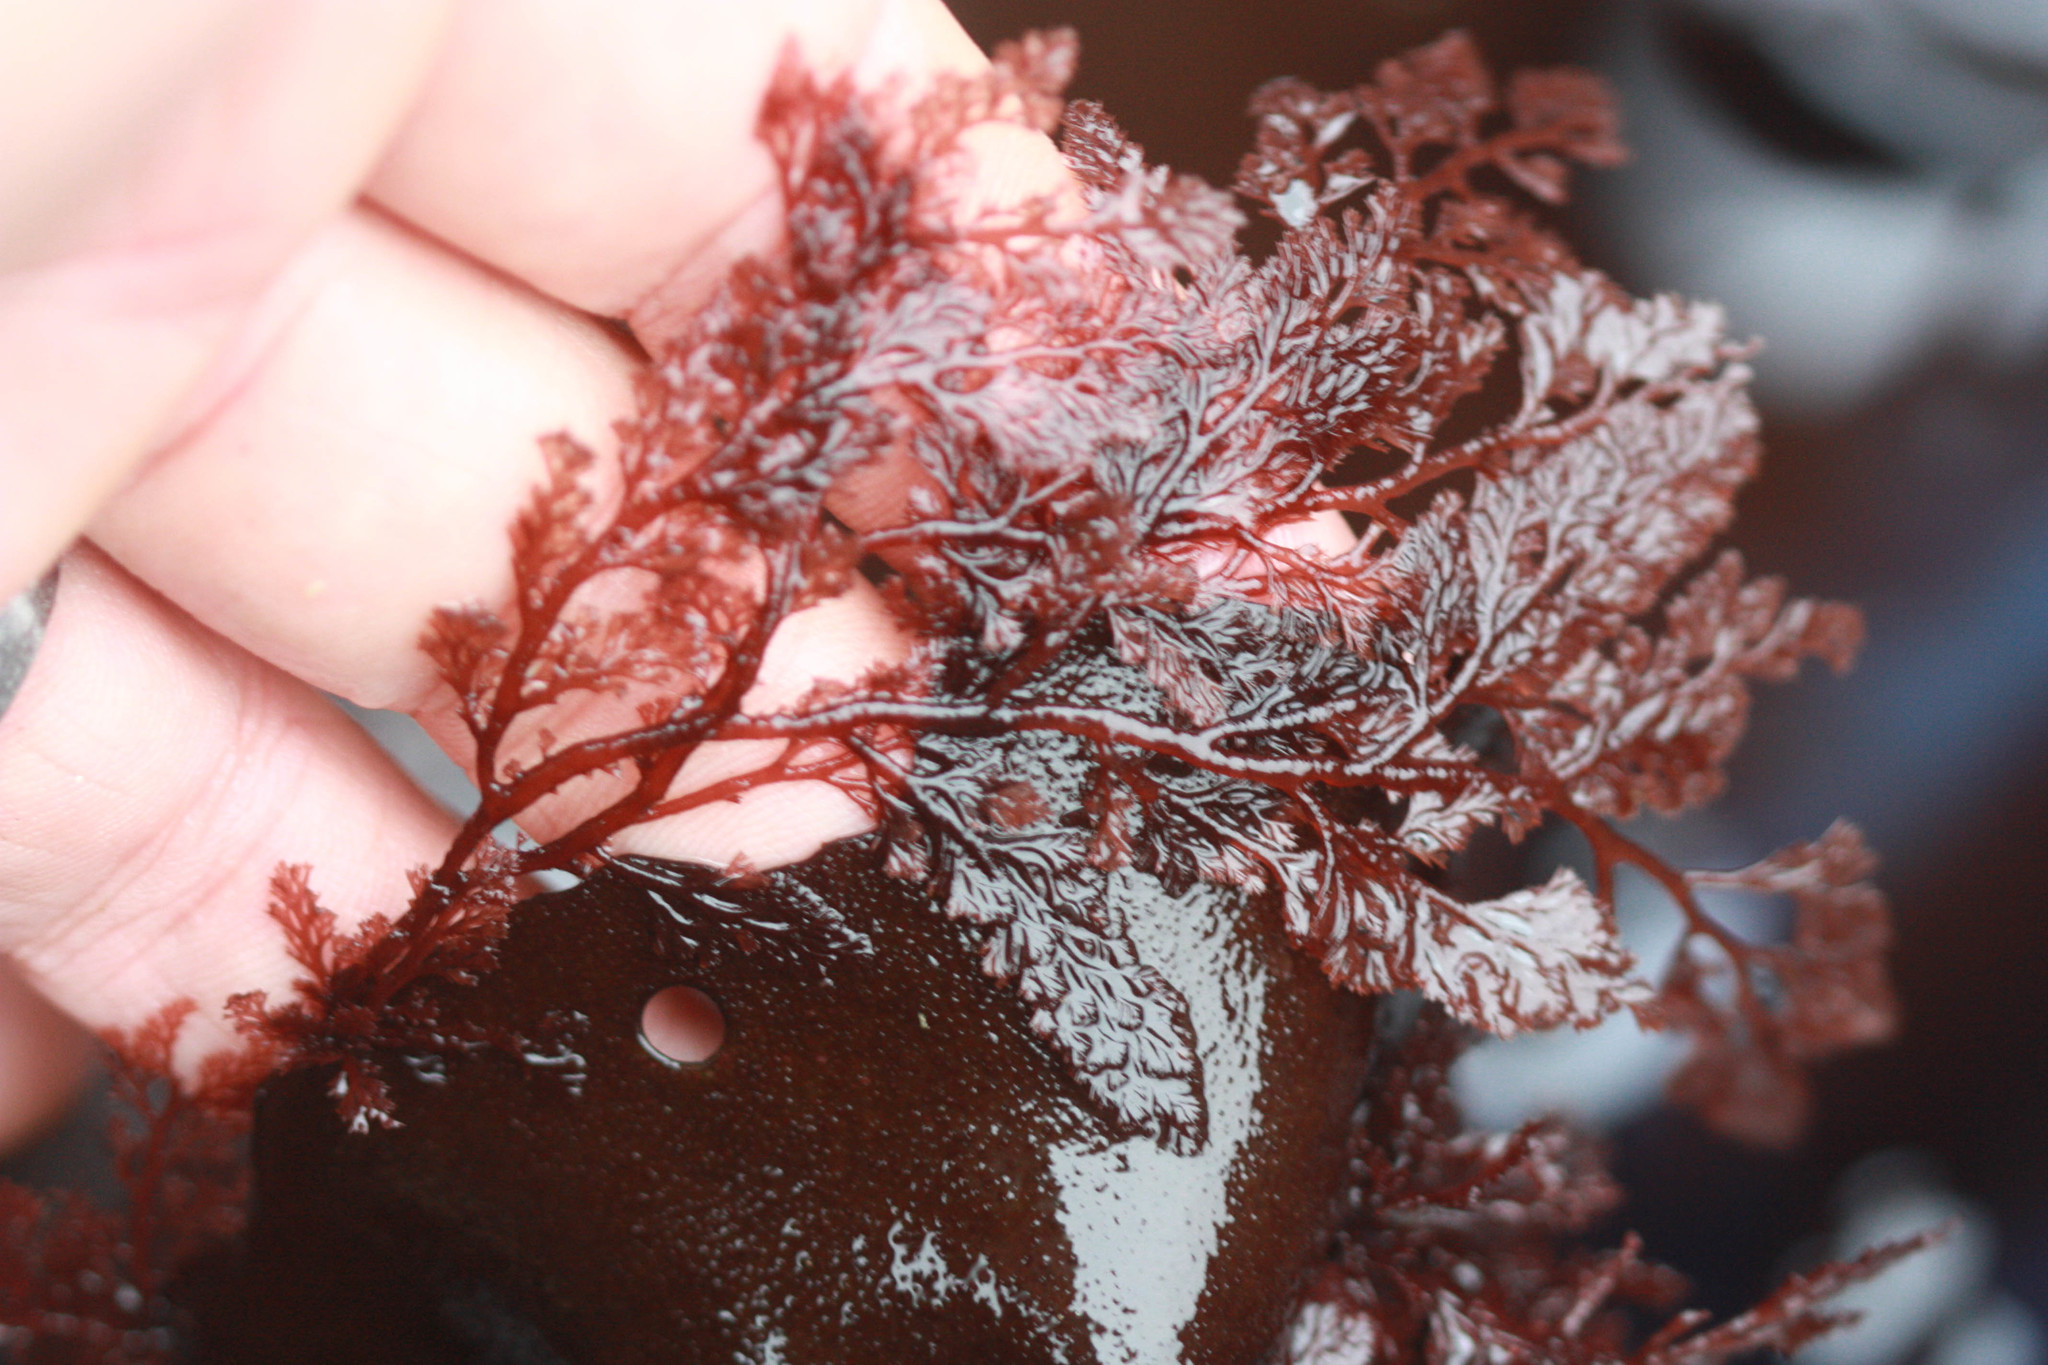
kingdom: Plantae
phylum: Rhodophyta
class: Florideophyceae
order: Ceramiales
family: Ceramiaceae
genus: Microcladia
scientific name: Microcladia coulteri
